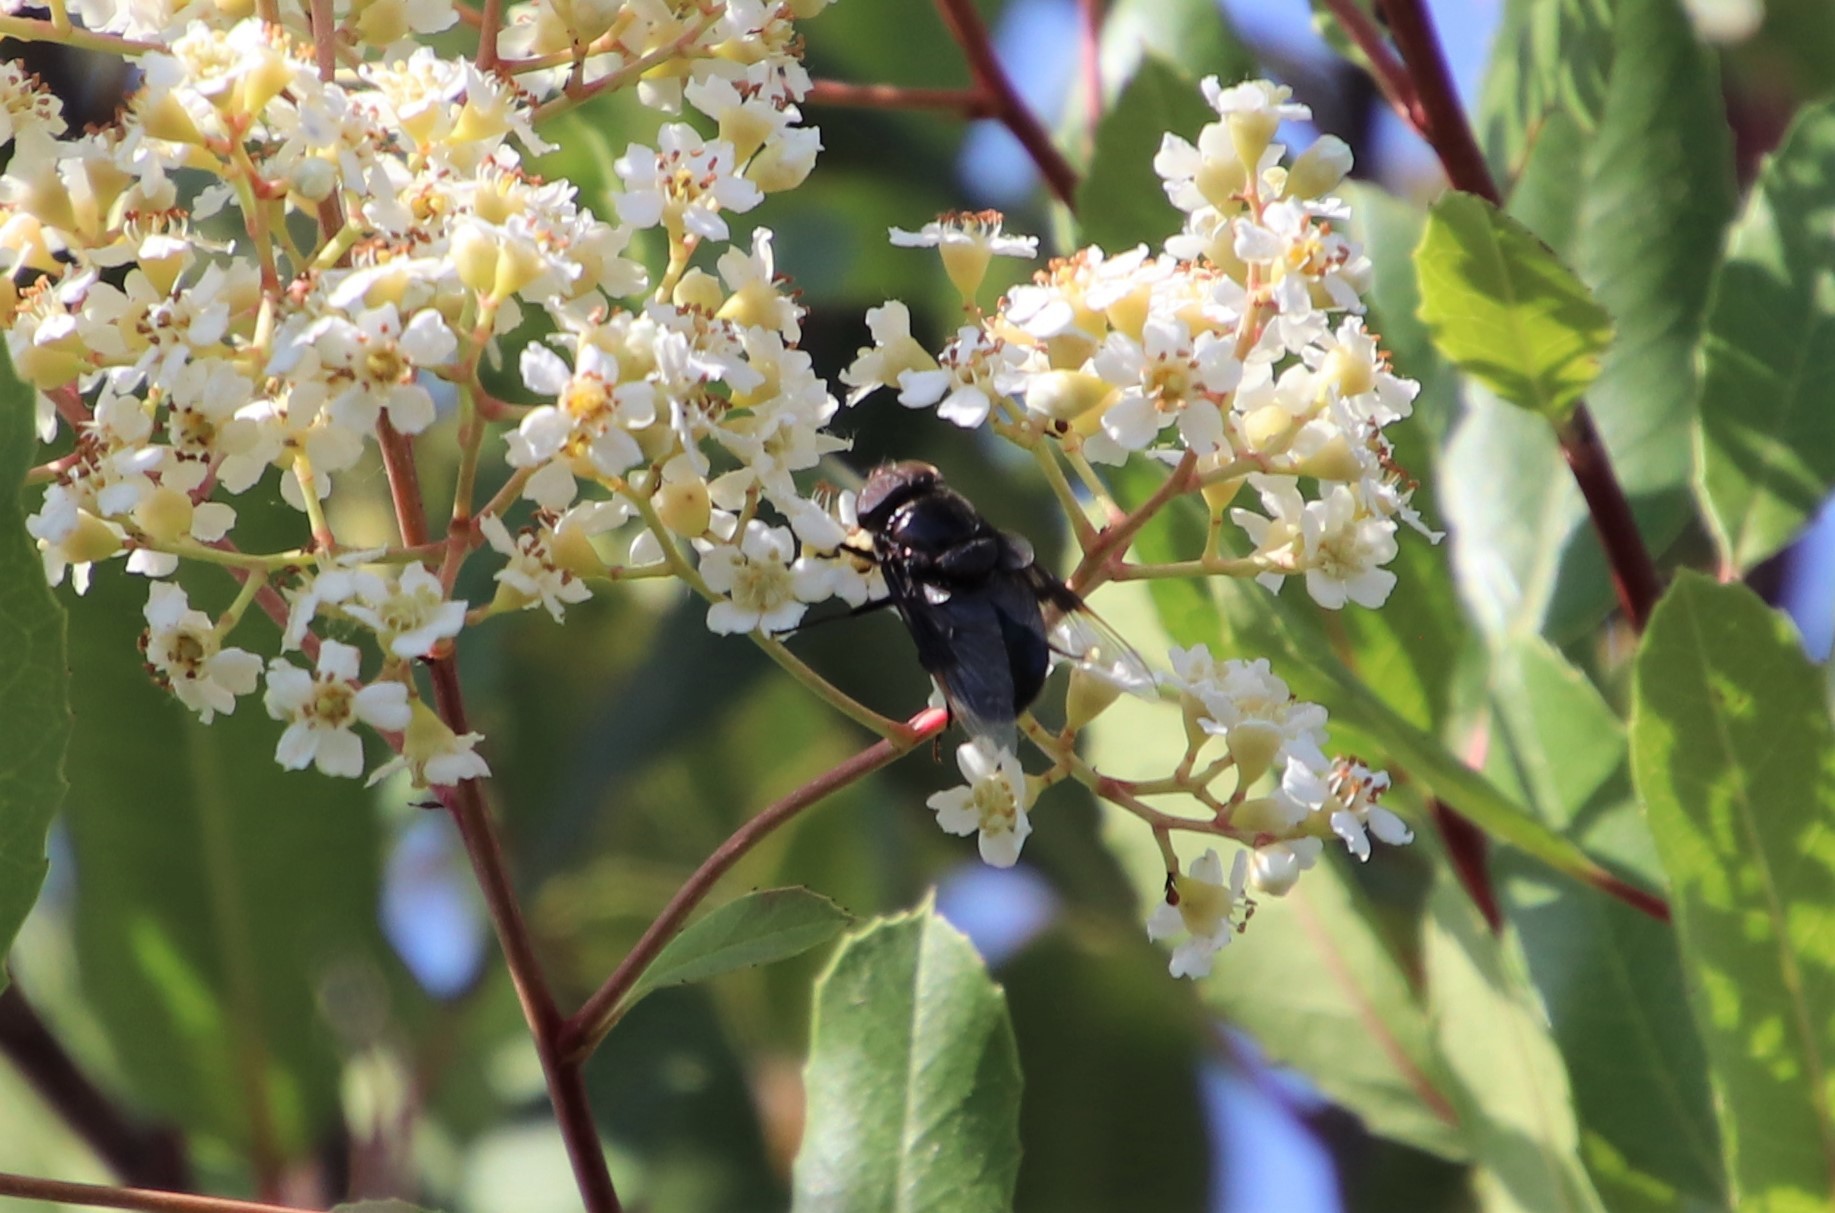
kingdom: Animalia
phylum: Arthropoda
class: Insecta
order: Diptera
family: Syrphidae
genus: Copestylum
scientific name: Copestylum mexicanum
